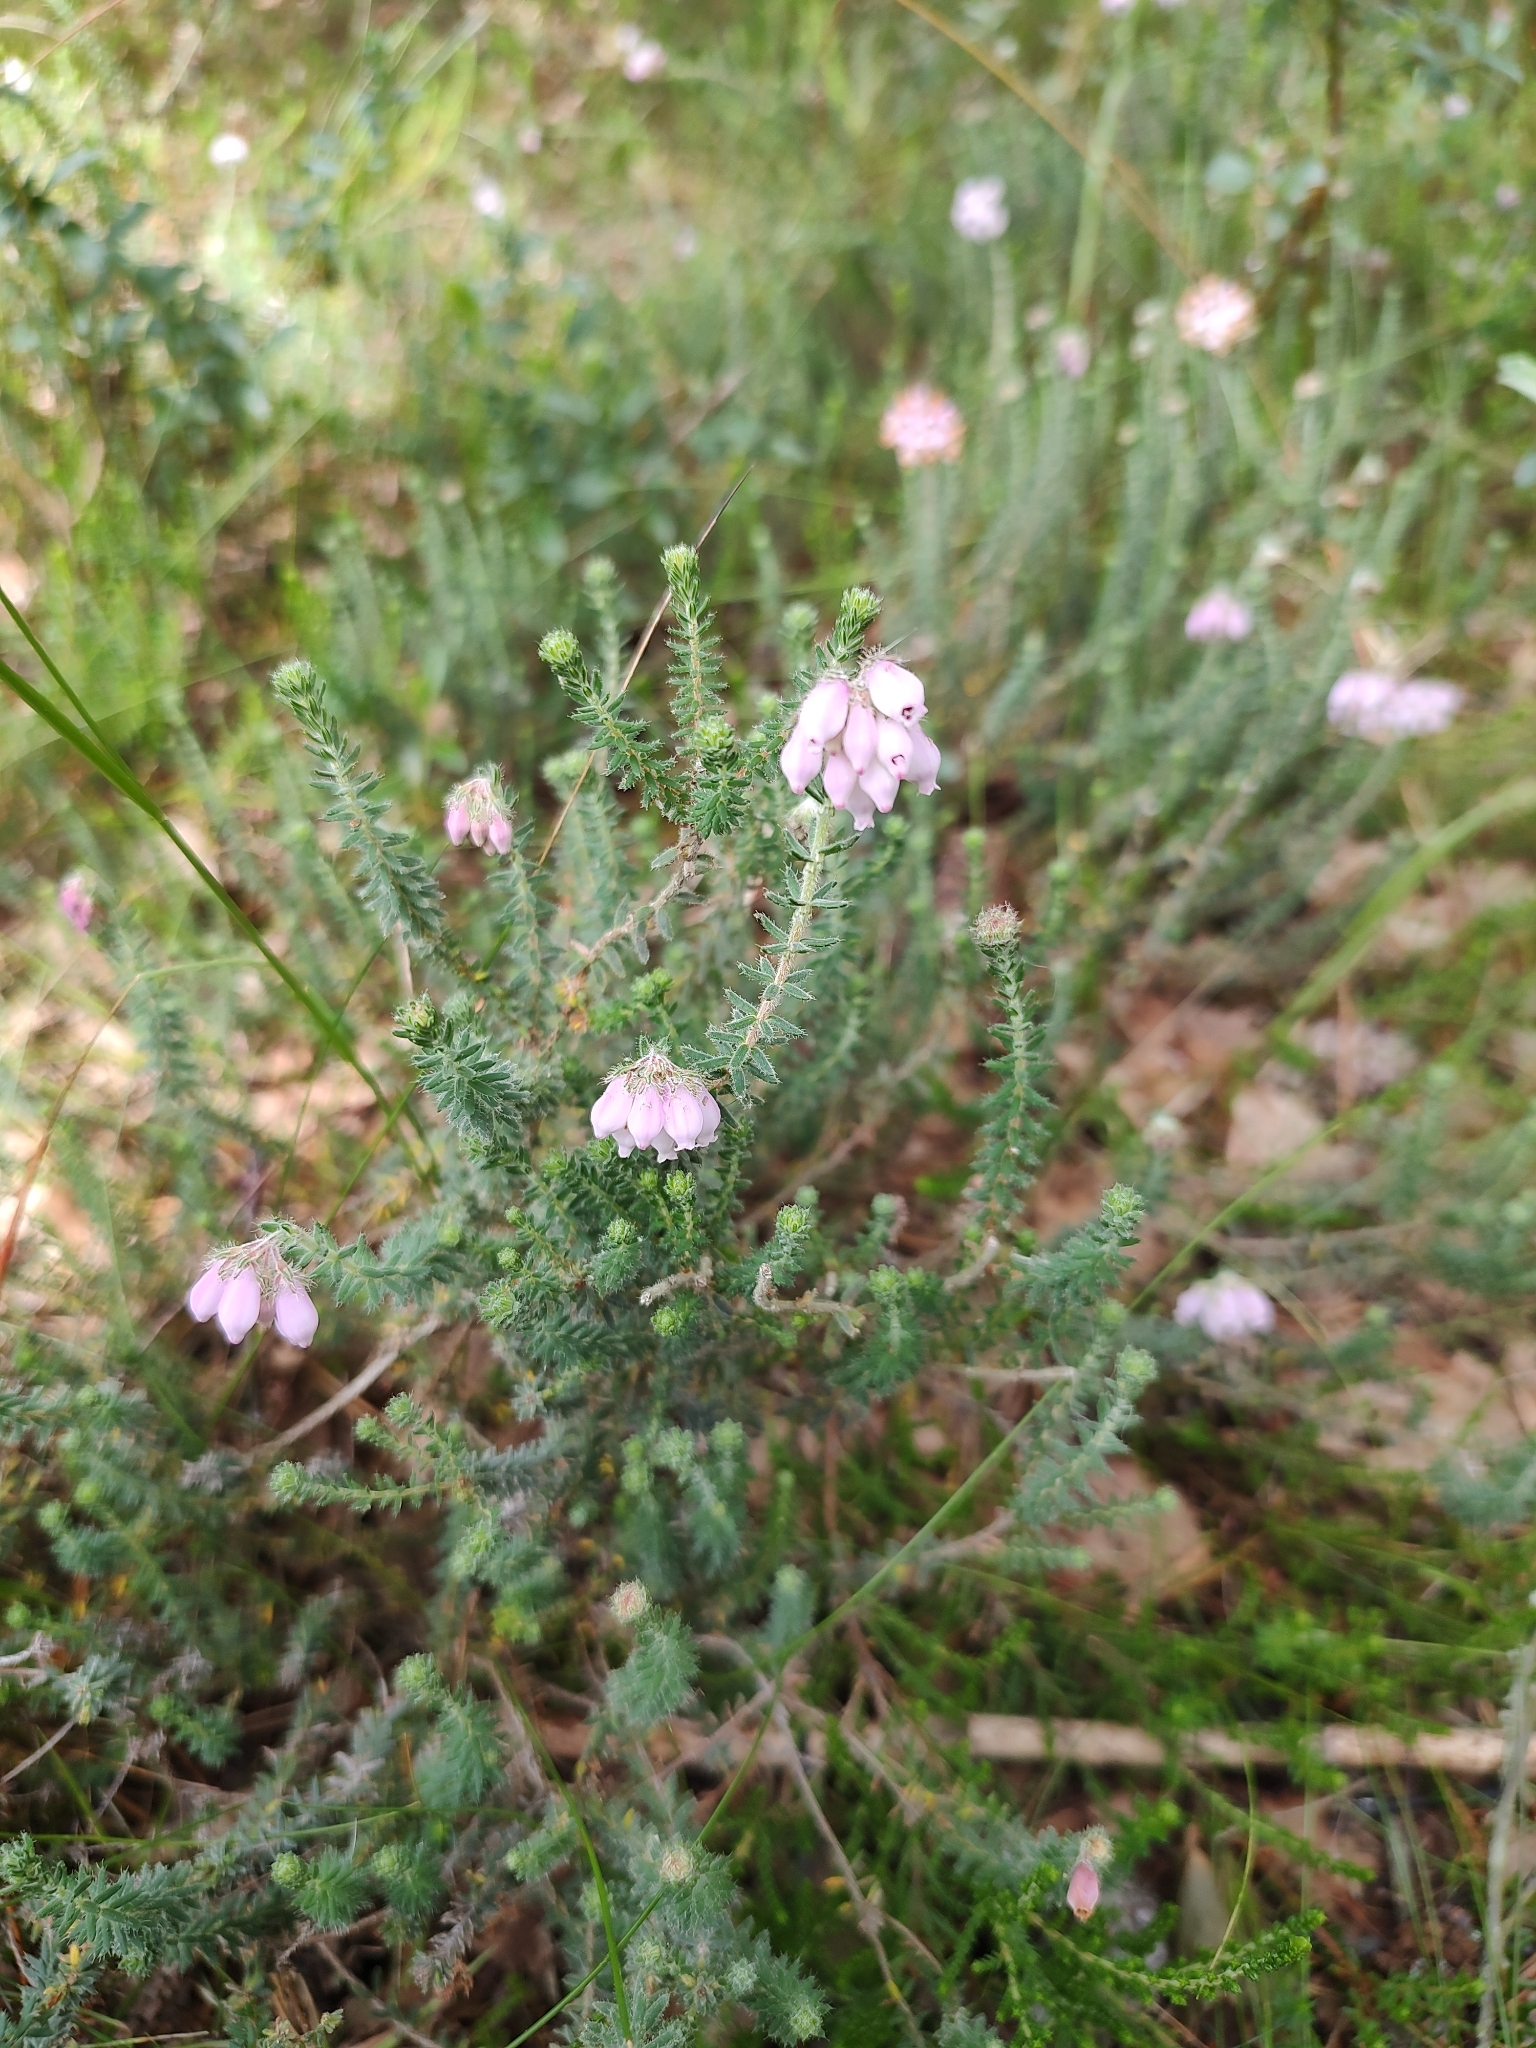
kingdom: Plantae
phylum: Tracheophyta
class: Magnoliopsida
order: Ericales
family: Ericaceae
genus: Erica
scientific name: Erica tetralix
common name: Cross-leaved heath
